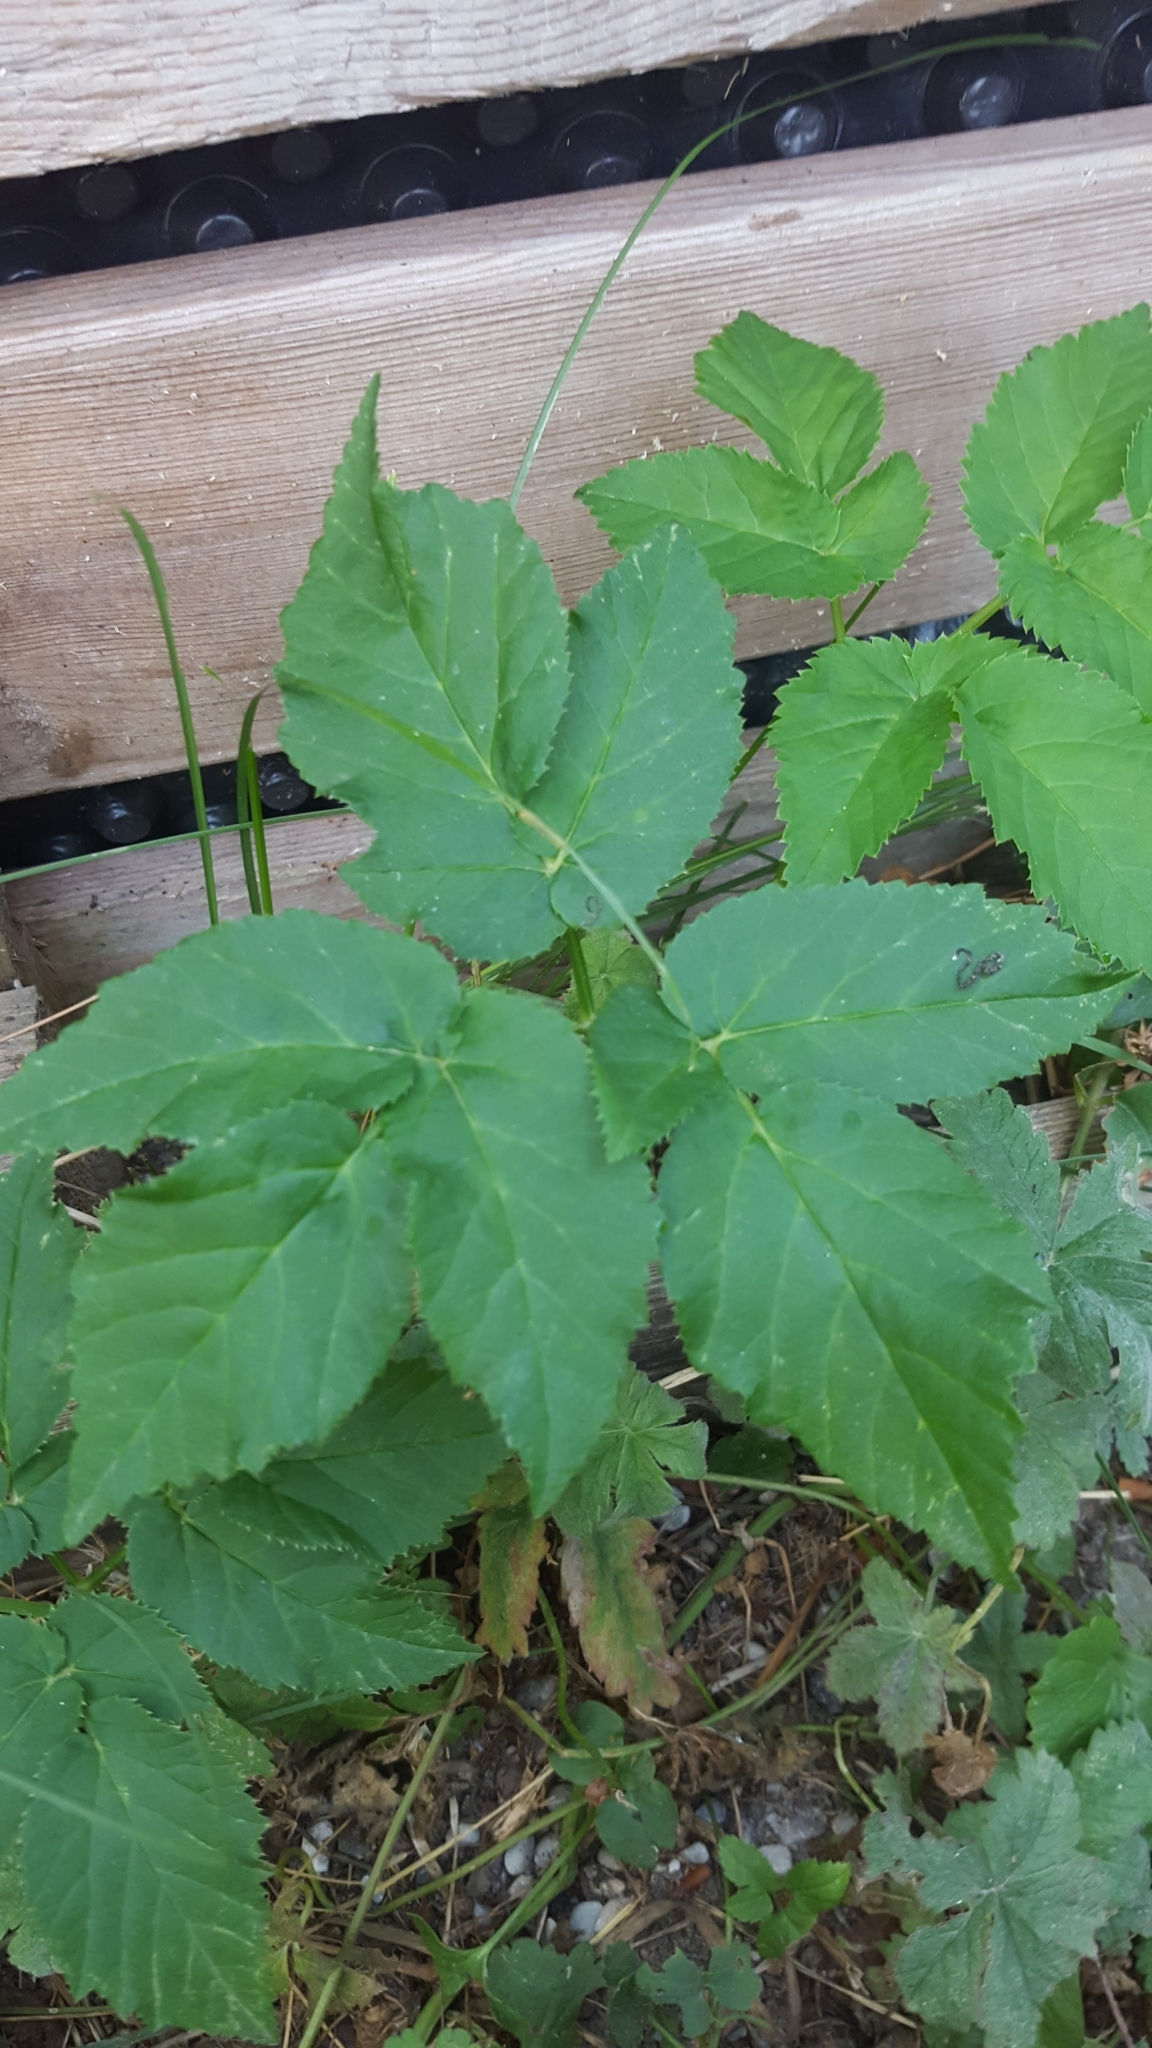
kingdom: Plantae
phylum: Tracheophyta
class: Magnoliopsida
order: Apiales
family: Apiaceae
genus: Aegopodium
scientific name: Aegopodium podagraria
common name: Ground-elder
